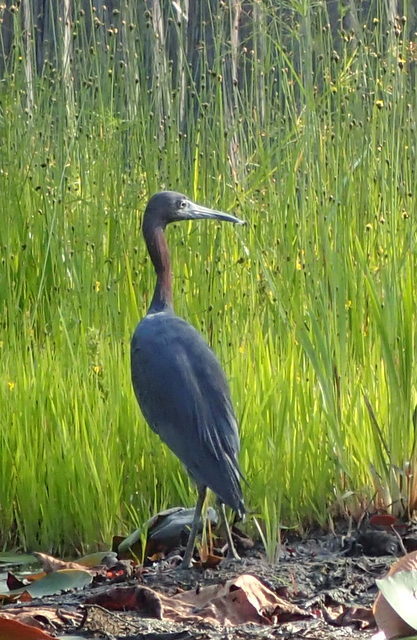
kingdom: Animalia
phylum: Chordata
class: Aves
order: Pelecaniformes
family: Ardeidae
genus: Egretta
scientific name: Egretta caerulea
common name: Little blue heron
